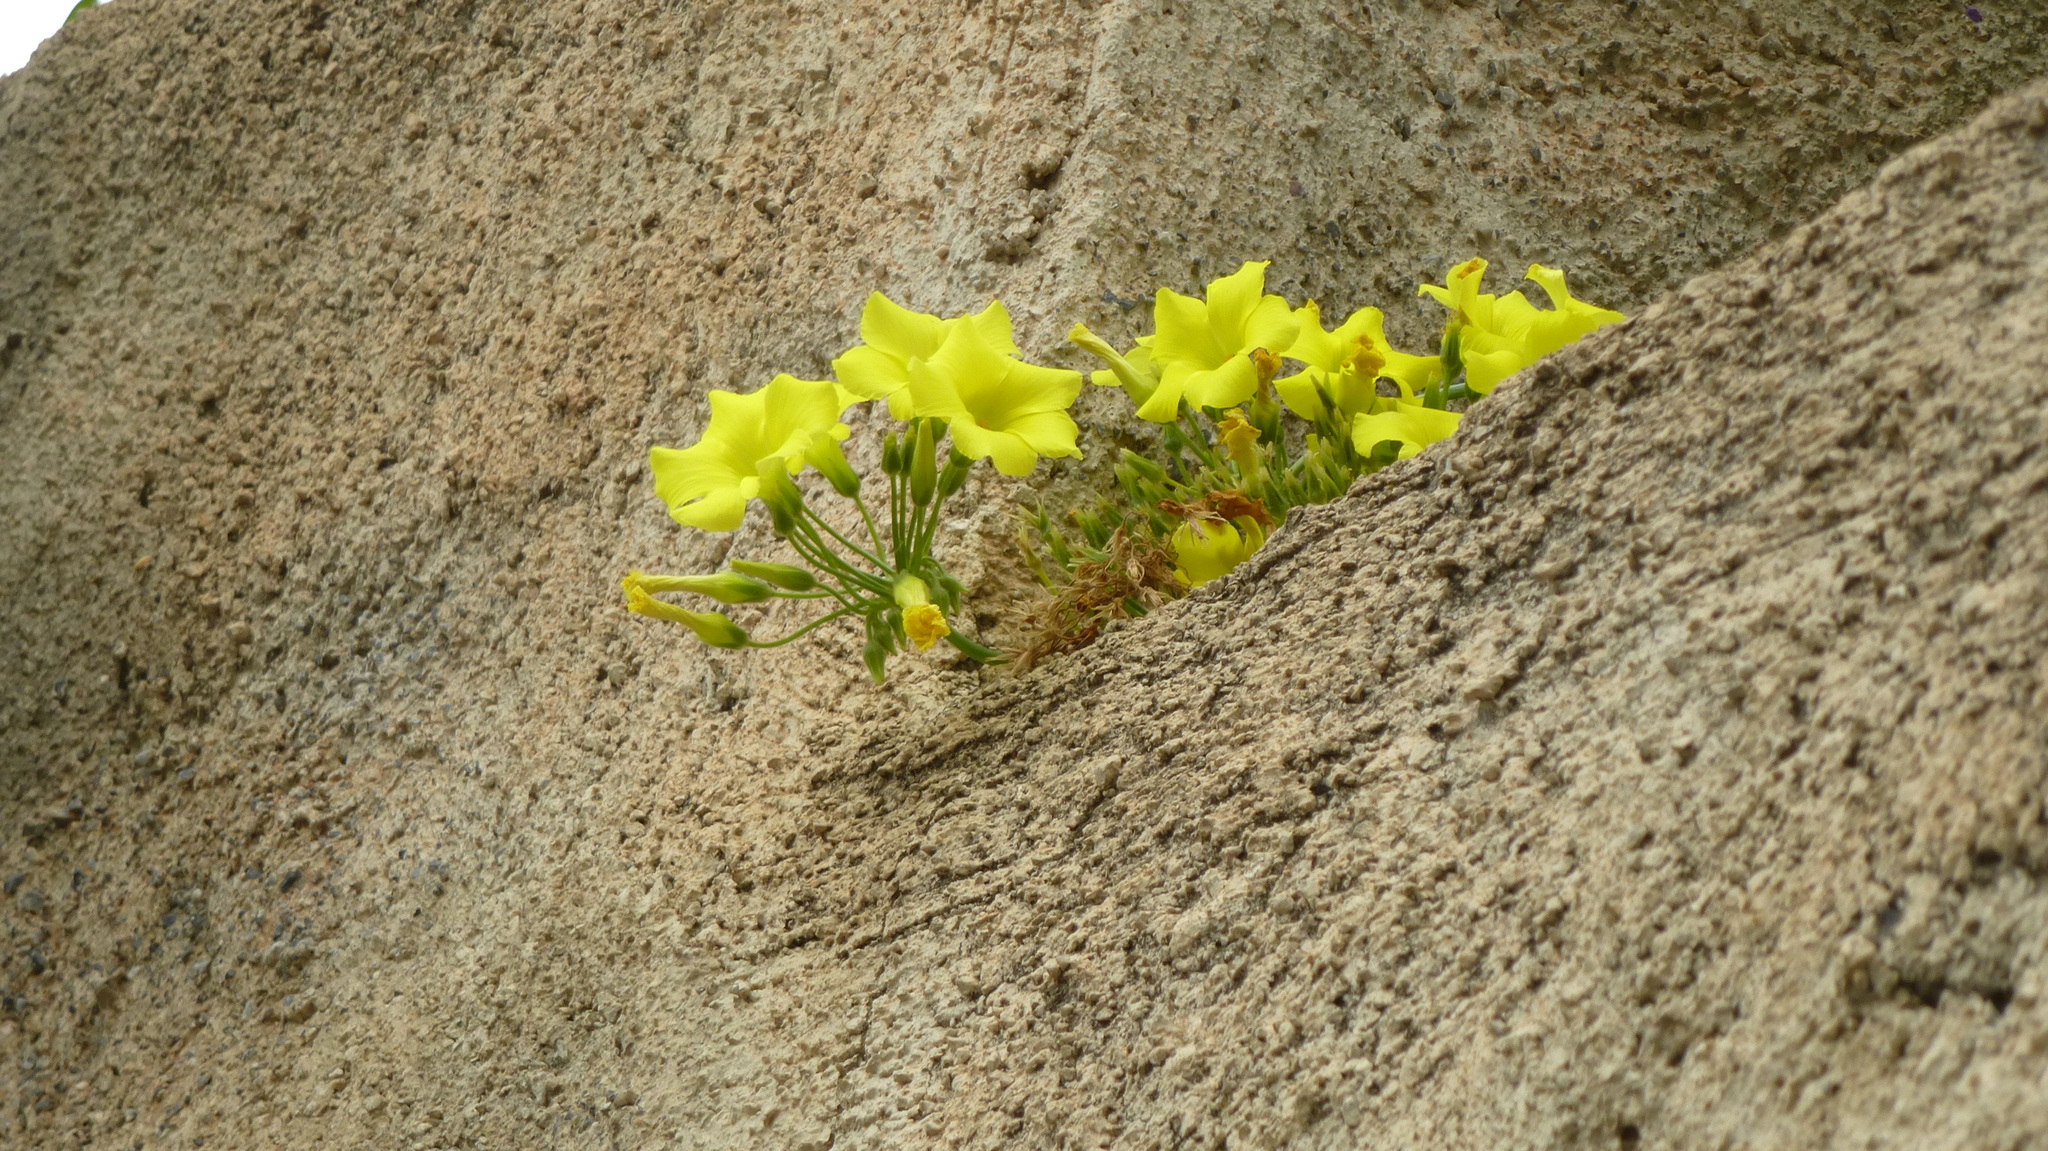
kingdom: Plantae
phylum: Tracheophyta
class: Magnoliopsida
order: Oxalidales
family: Oxalidaceae
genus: Oxalis
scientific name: Oxalis pes-caprae
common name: Bermuda-buttercup
